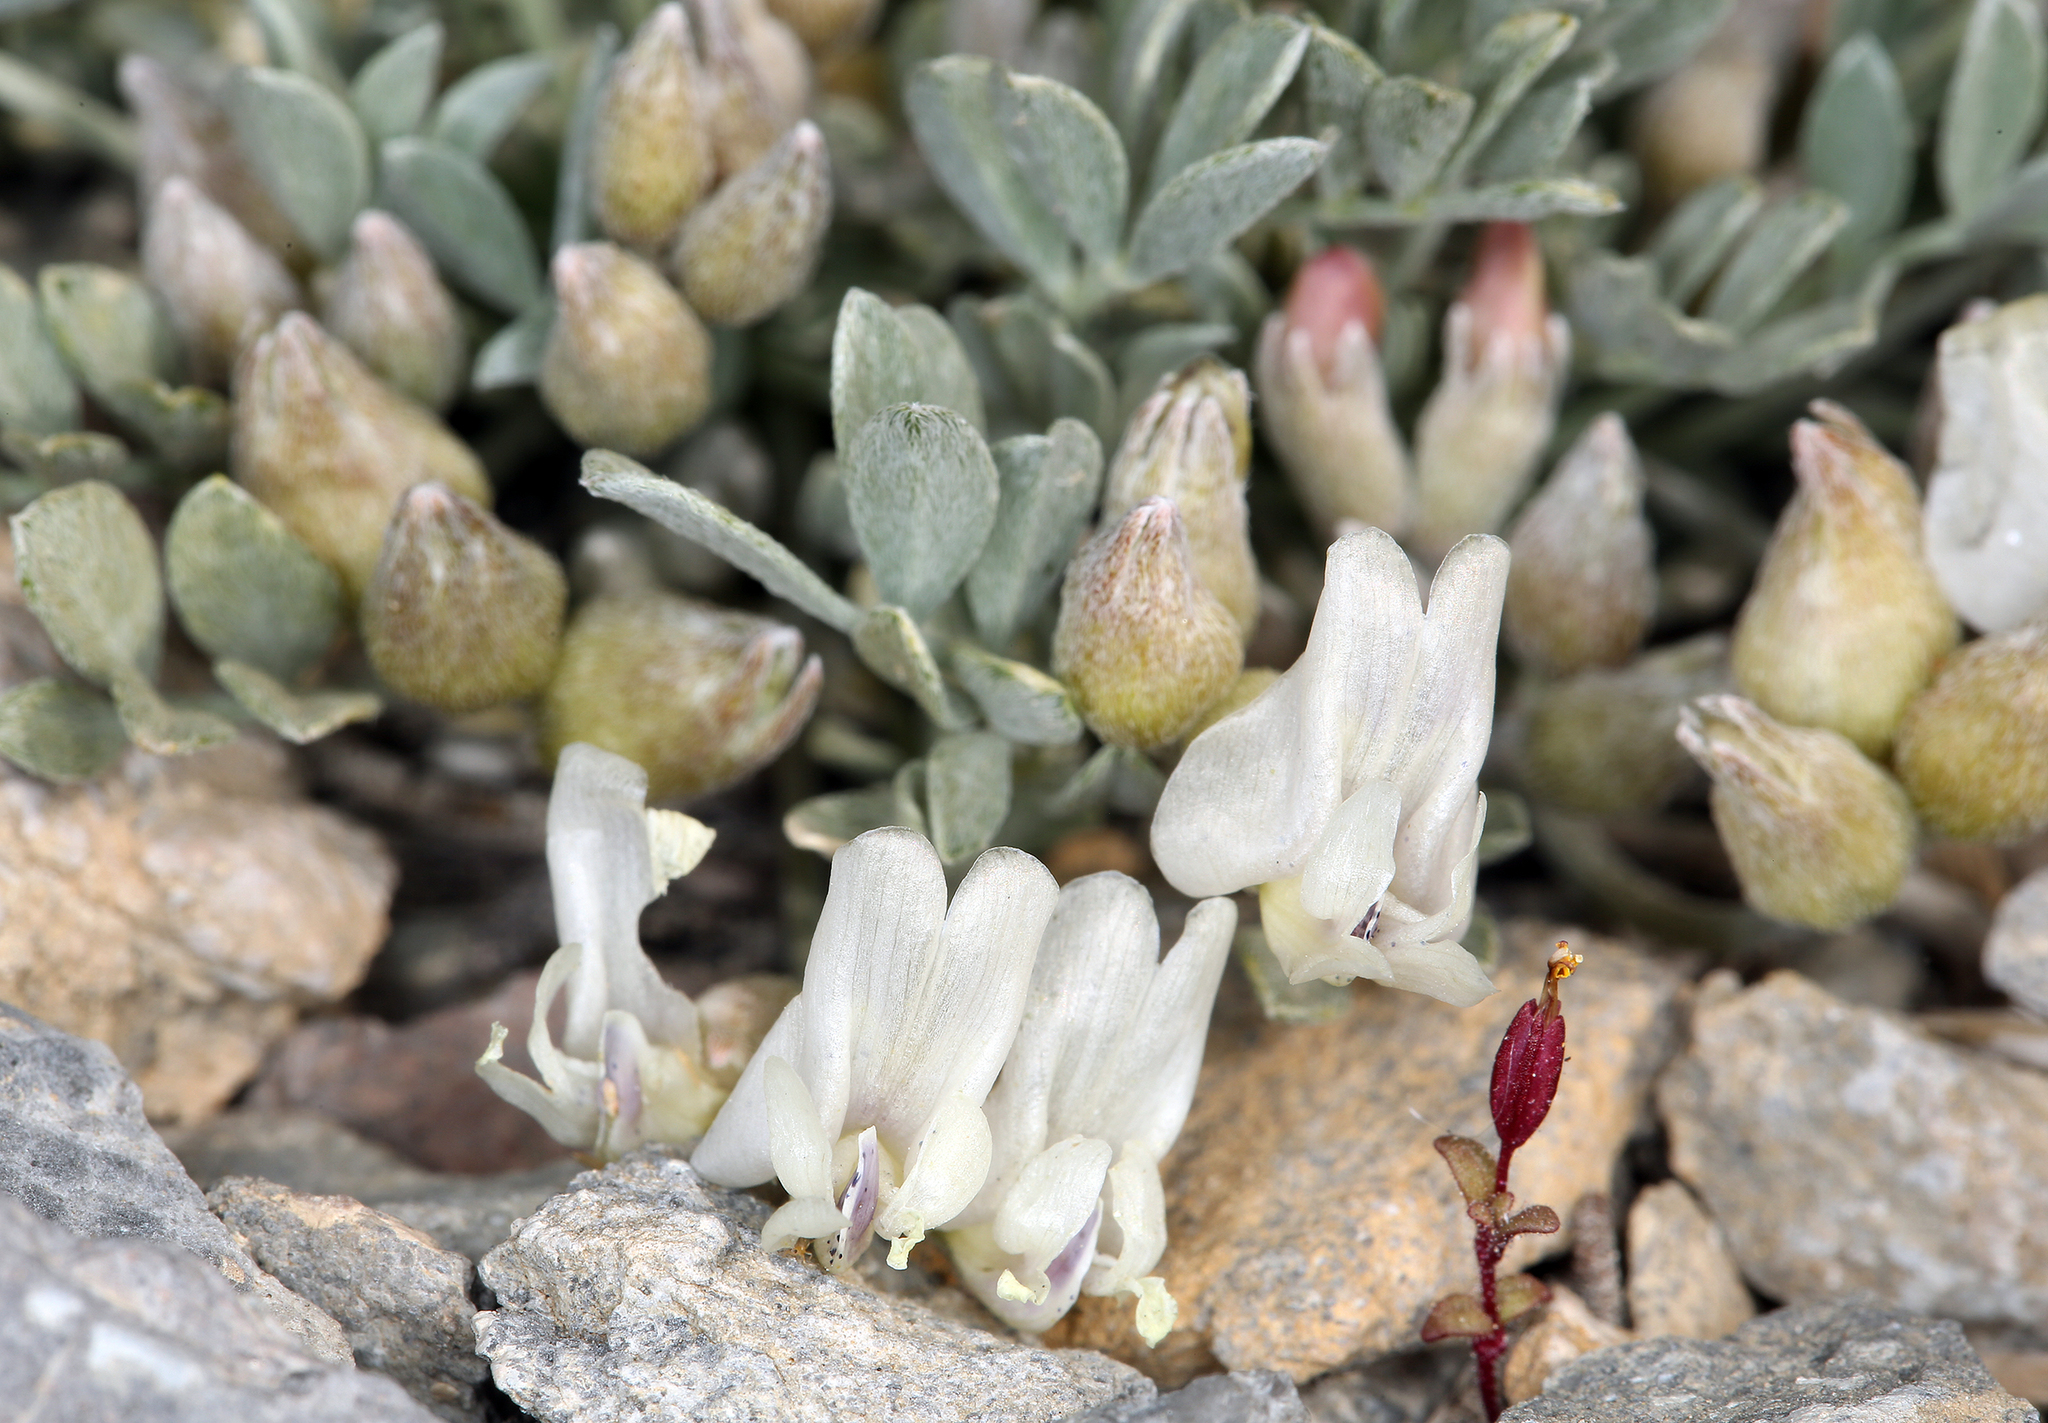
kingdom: Plantae
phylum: Tracheophyta
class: Magnoliopsida
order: Fabales
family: Fabaceae
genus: Astragalus
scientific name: Astragalus calycosus
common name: King's milkvetch
